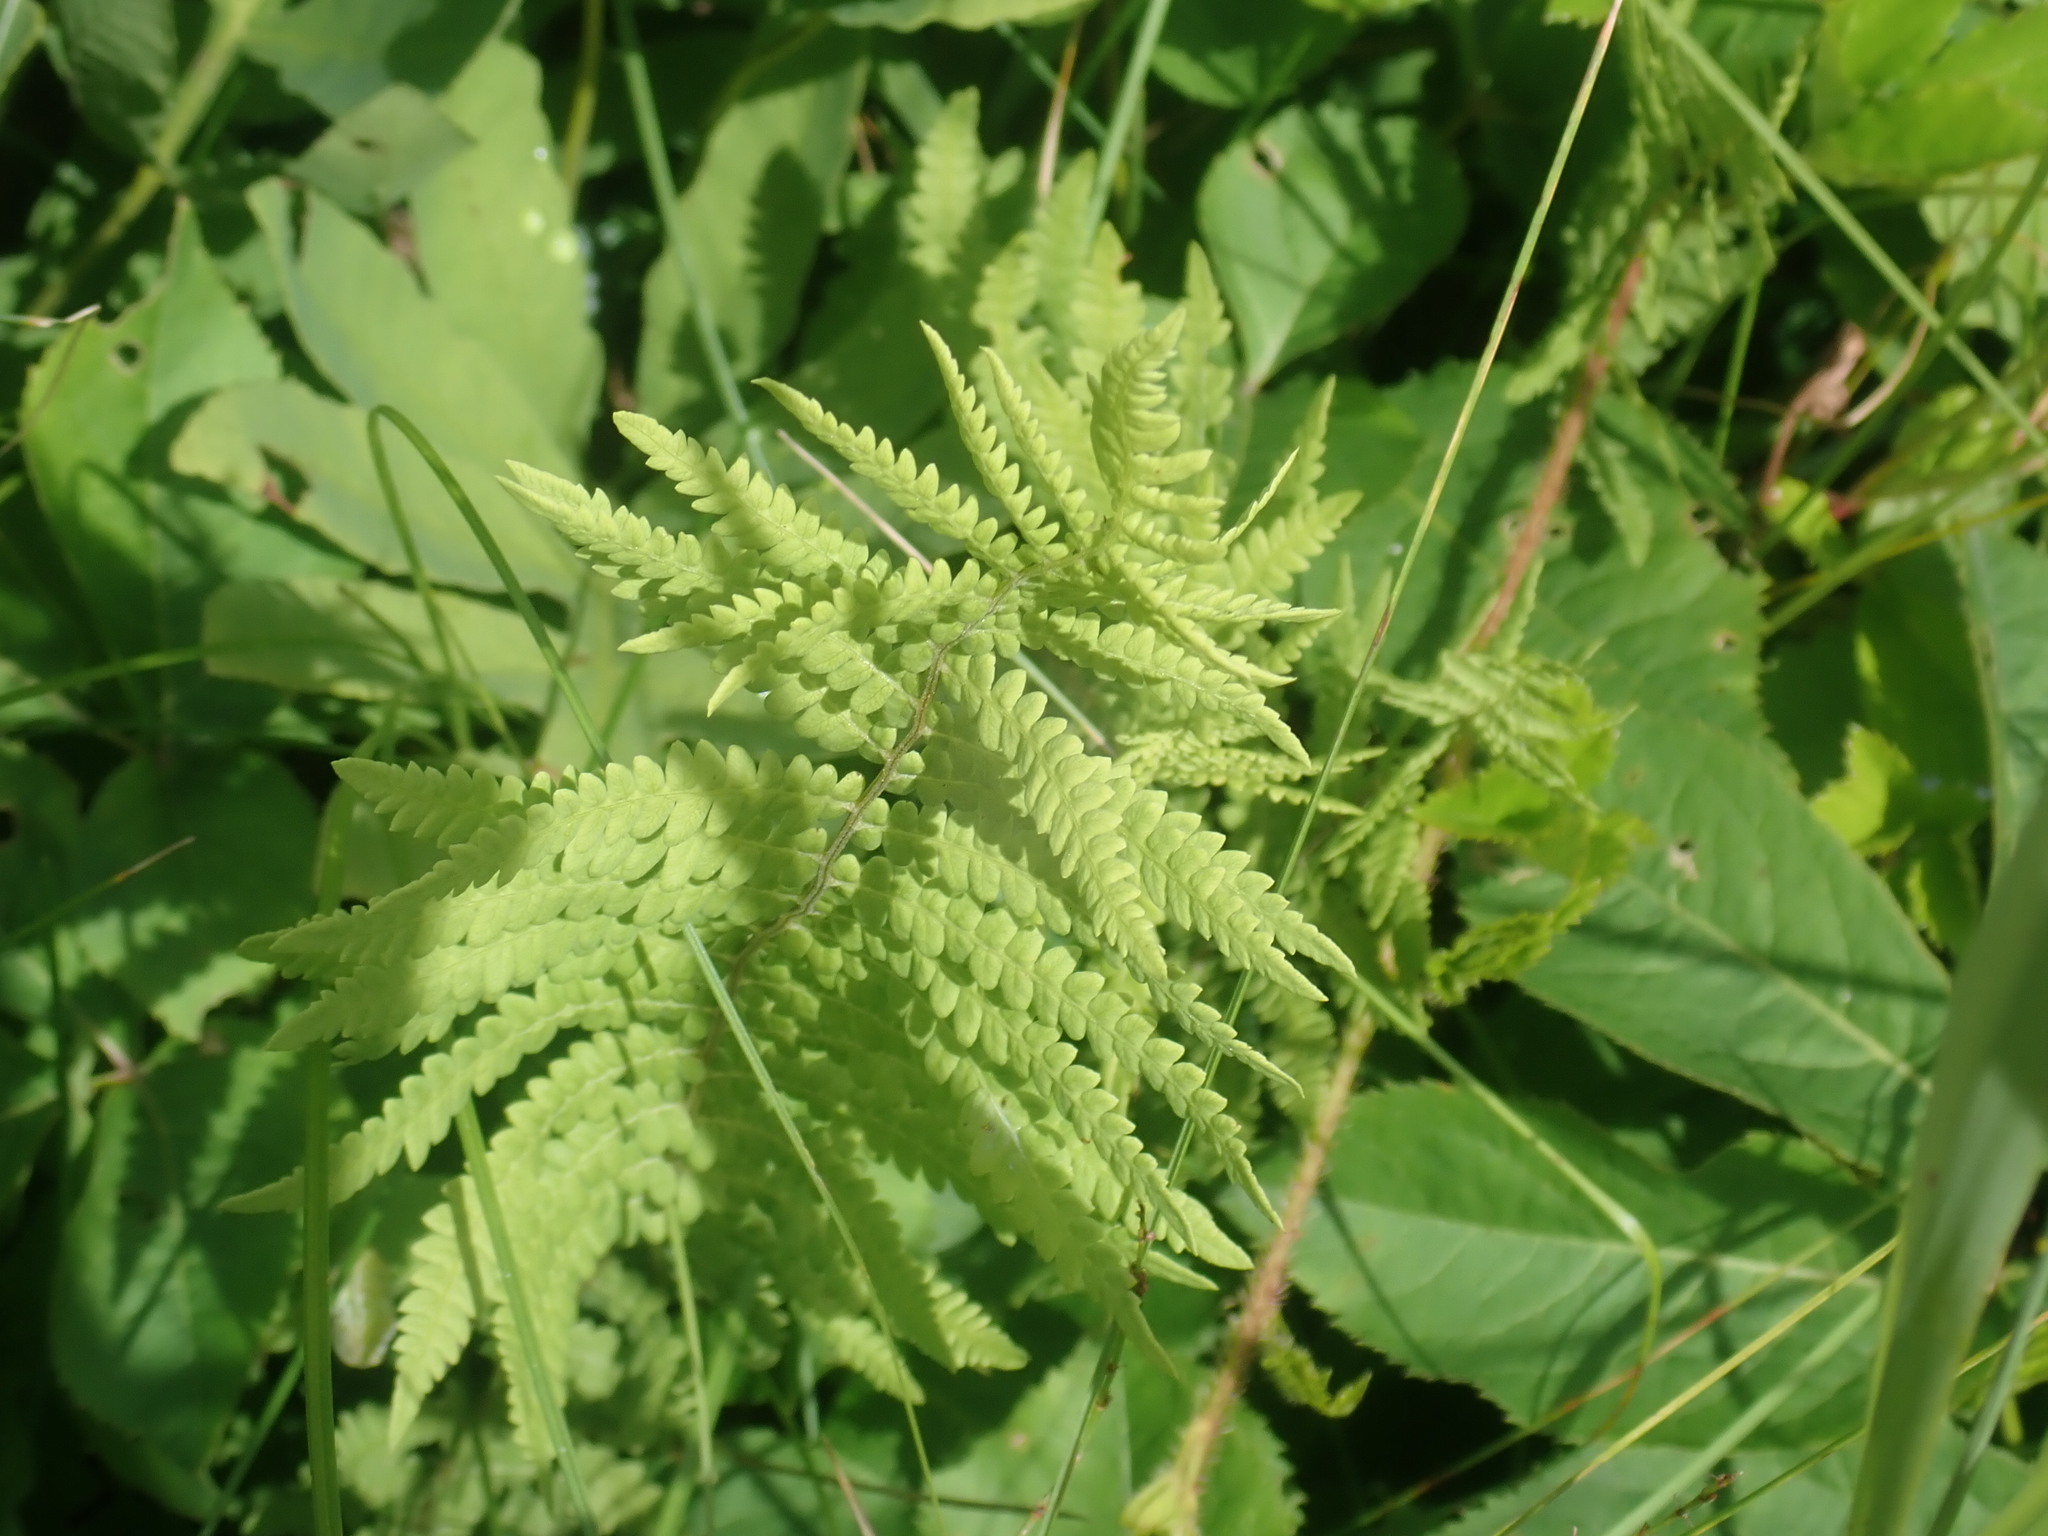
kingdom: Plantae
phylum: Tracheophyta
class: Polypodiopsida
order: Polypodiales
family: Thelypteridaceae
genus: Thelypteris
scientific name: Thelypteris palustris
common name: Marsh fern
